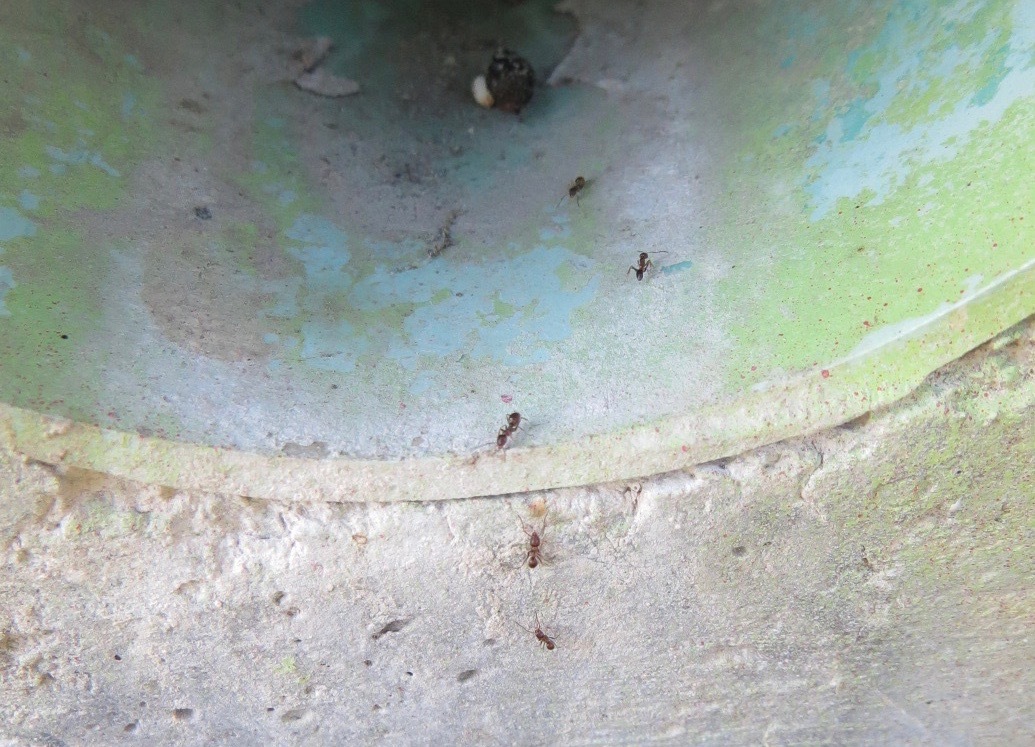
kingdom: Animalia
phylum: Arthropoda
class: Insecta
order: Hymenoptera
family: Formicidae
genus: Linepithema
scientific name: Linepithema humile
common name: Argentine ant
